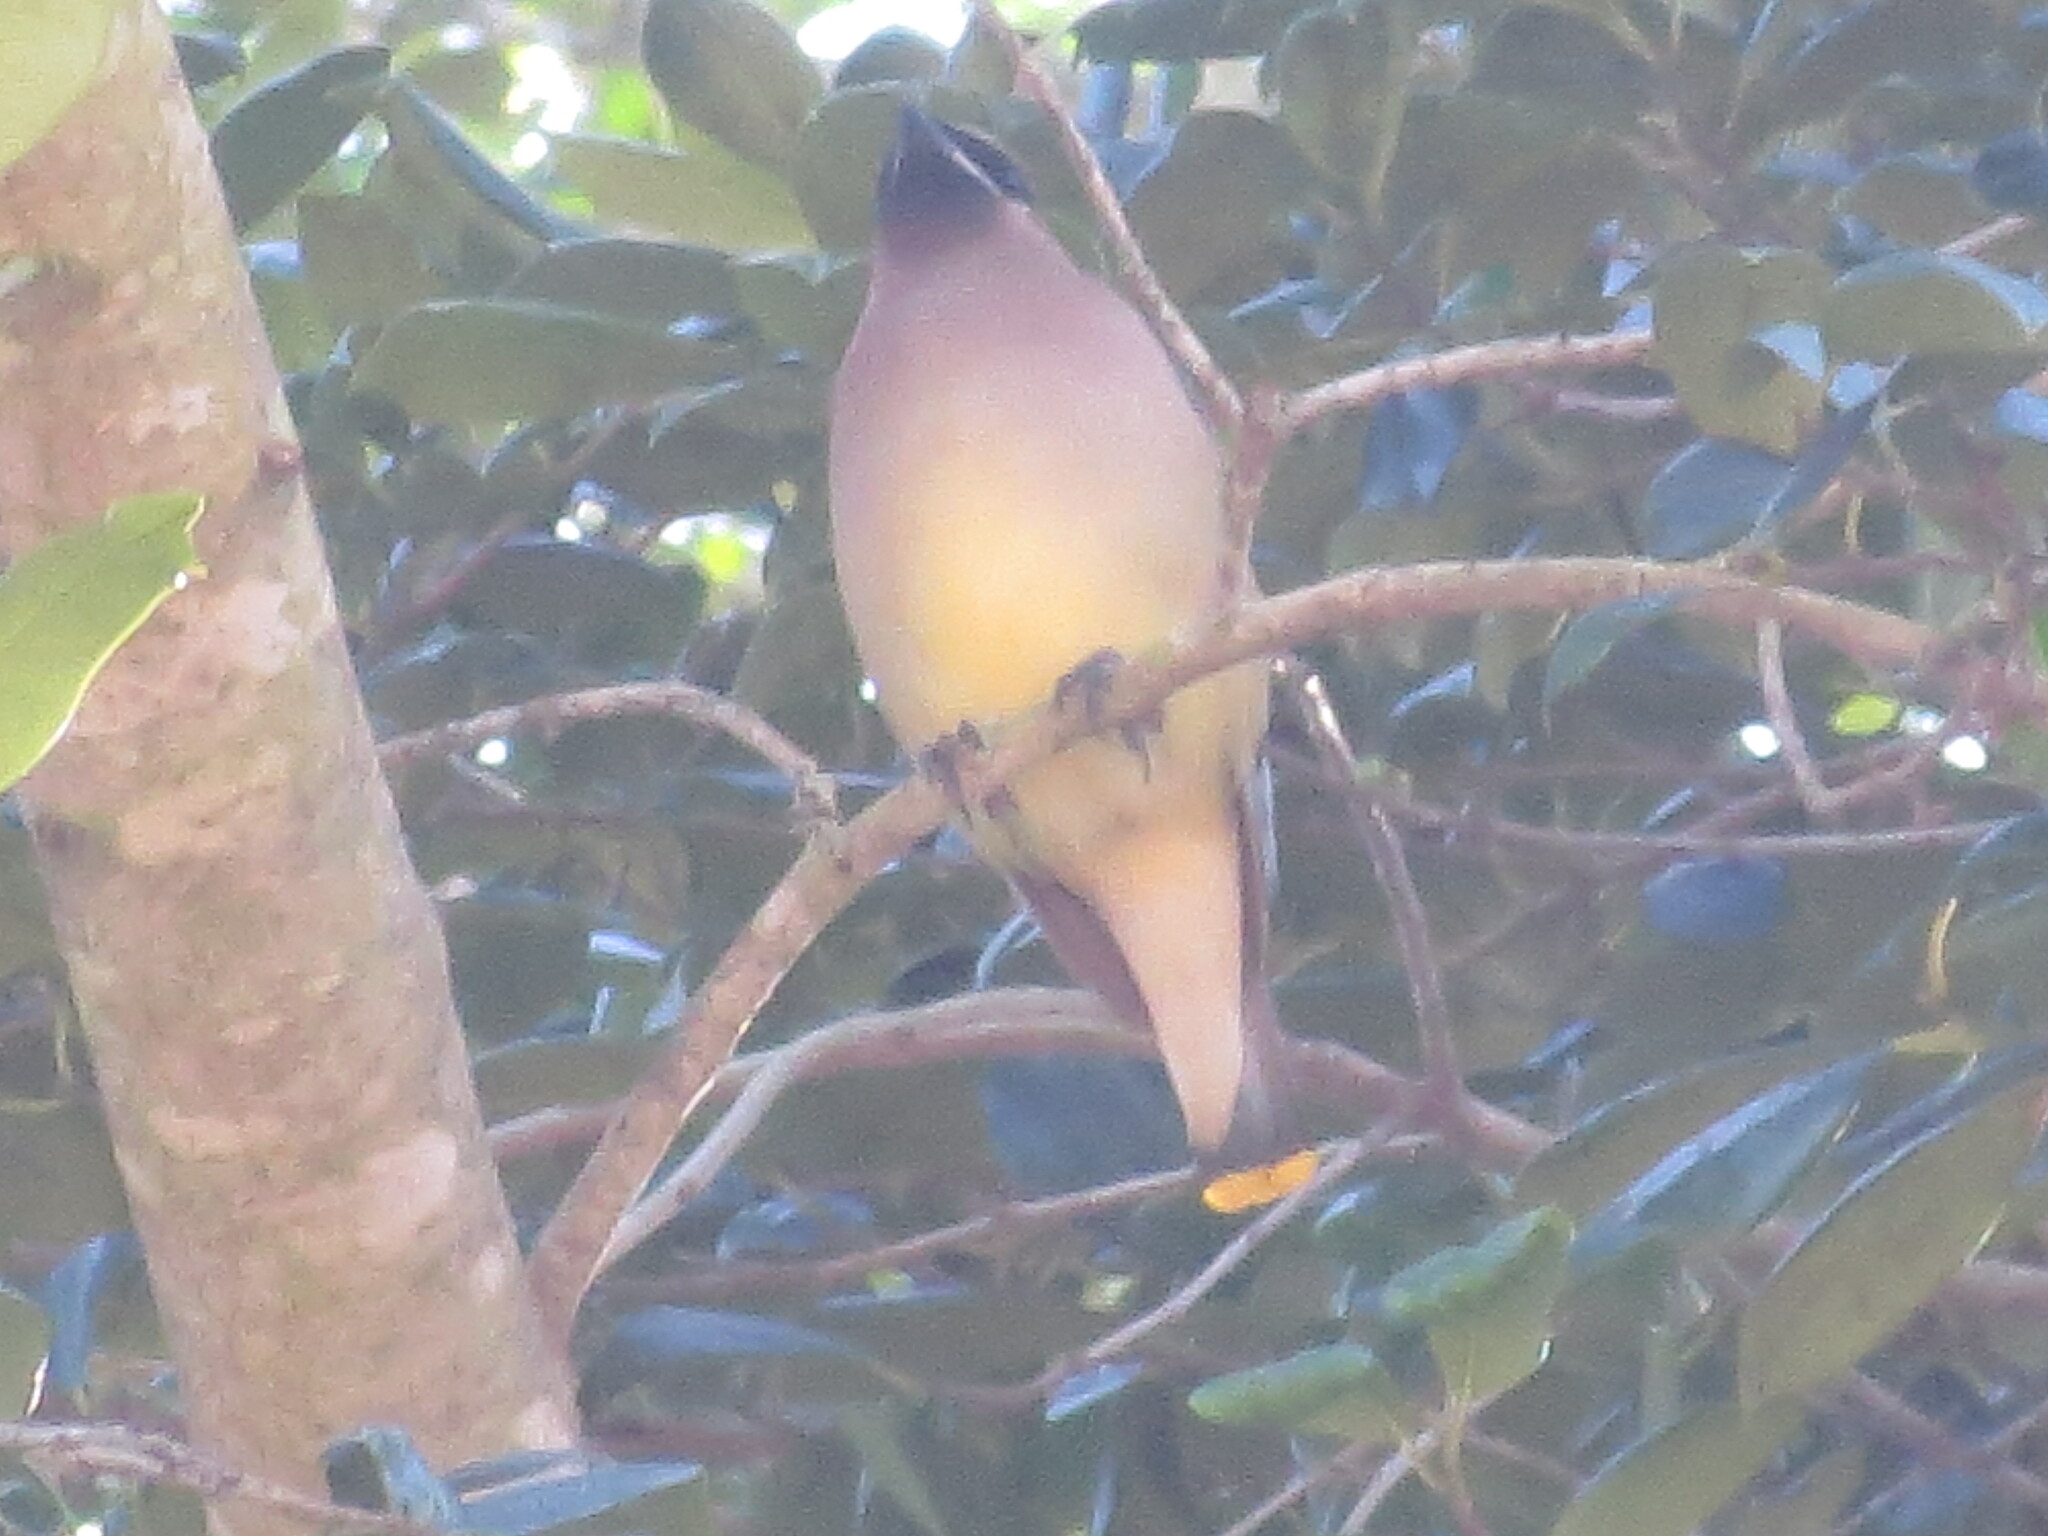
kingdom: Animalia
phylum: Chordata
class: Aves
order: Passeriformes
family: Bombycillidae
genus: Bombycilla
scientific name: Bombycilla cedrorum
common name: Cedar waxwing
